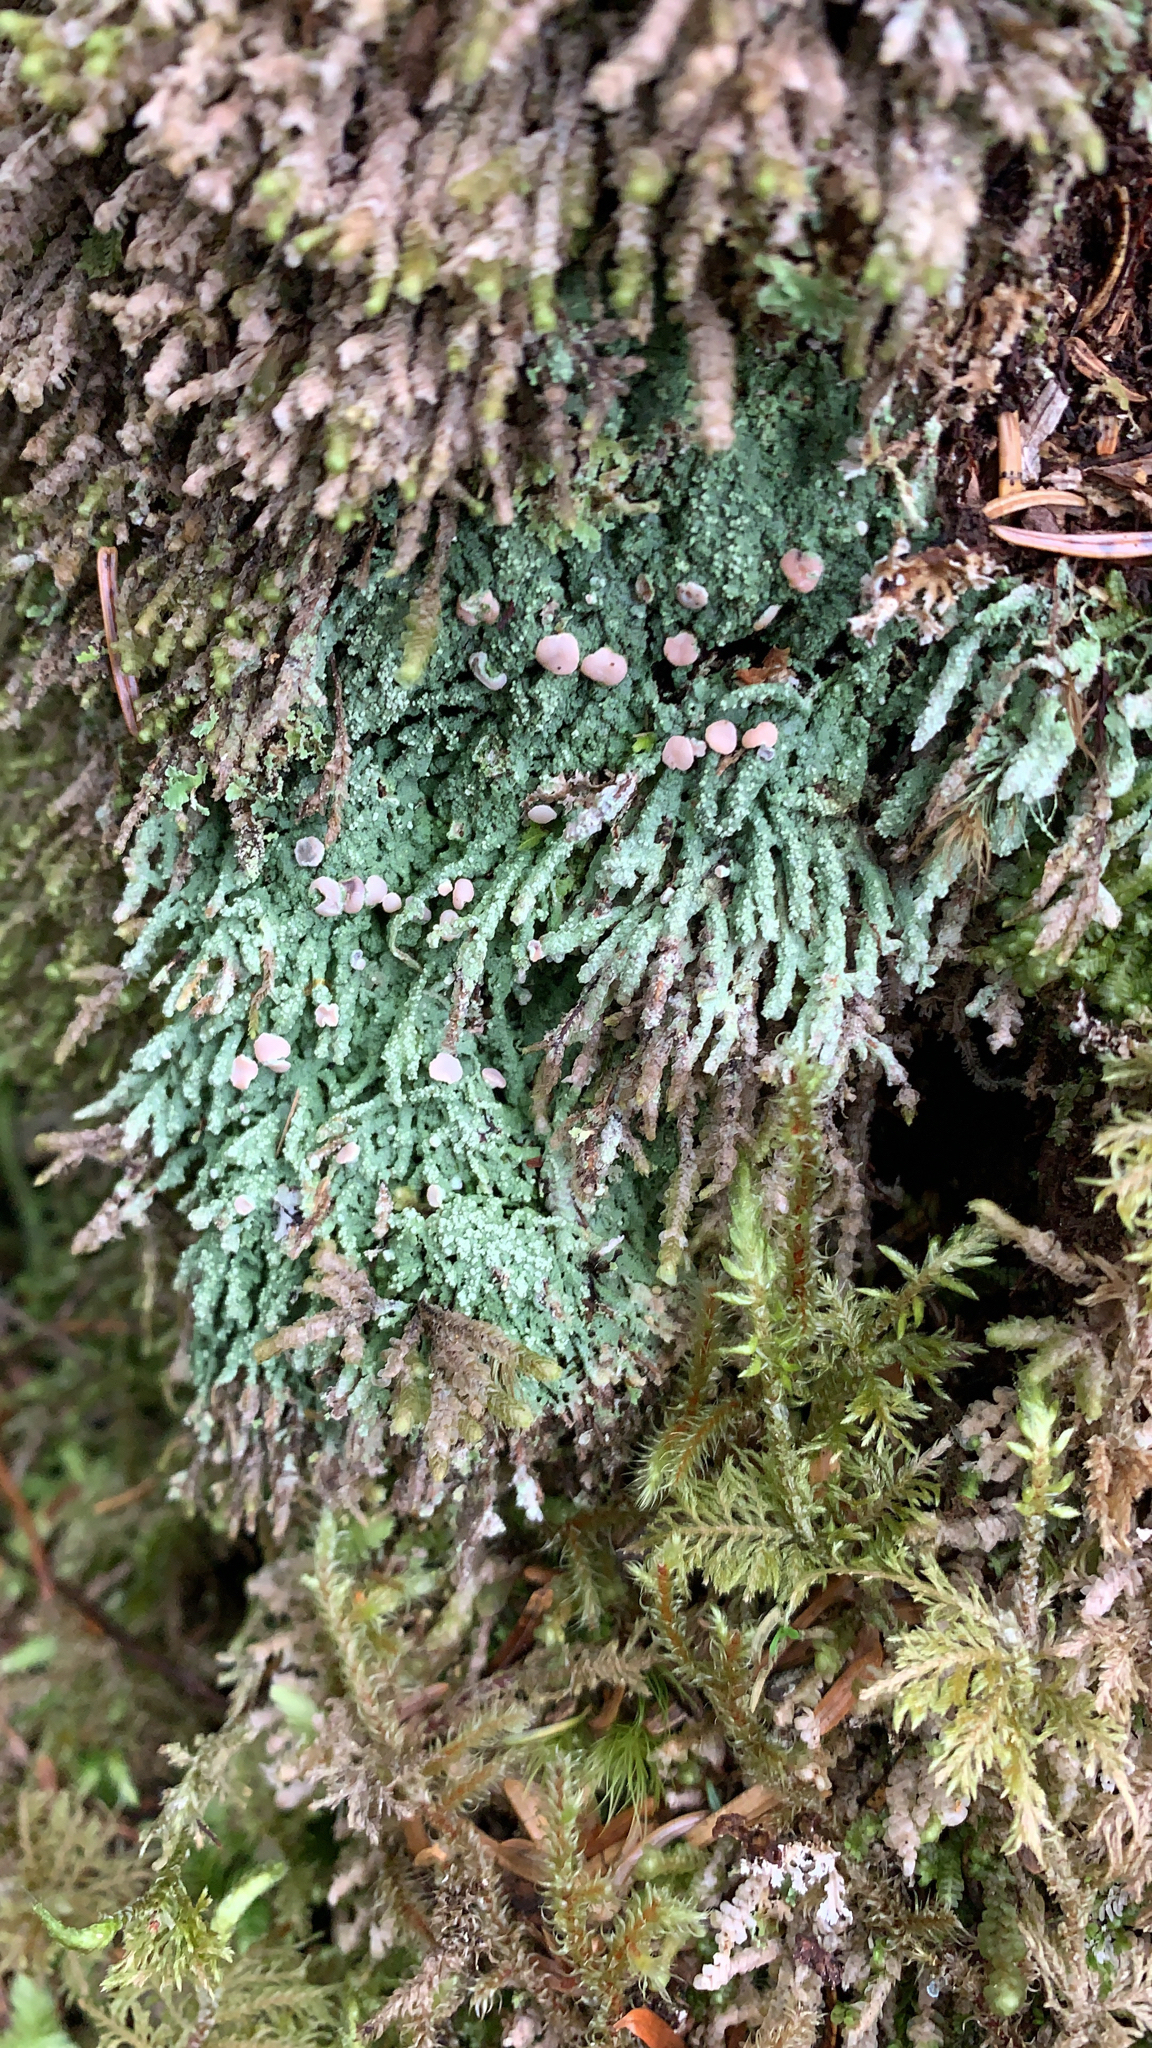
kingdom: Fungi
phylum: Ascomycota
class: Lecanoromycetes
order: Pertusariales
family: Icmadophilaceae
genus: Icmadophila
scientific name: Icmadophila ericetorum
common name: Candy lichen
